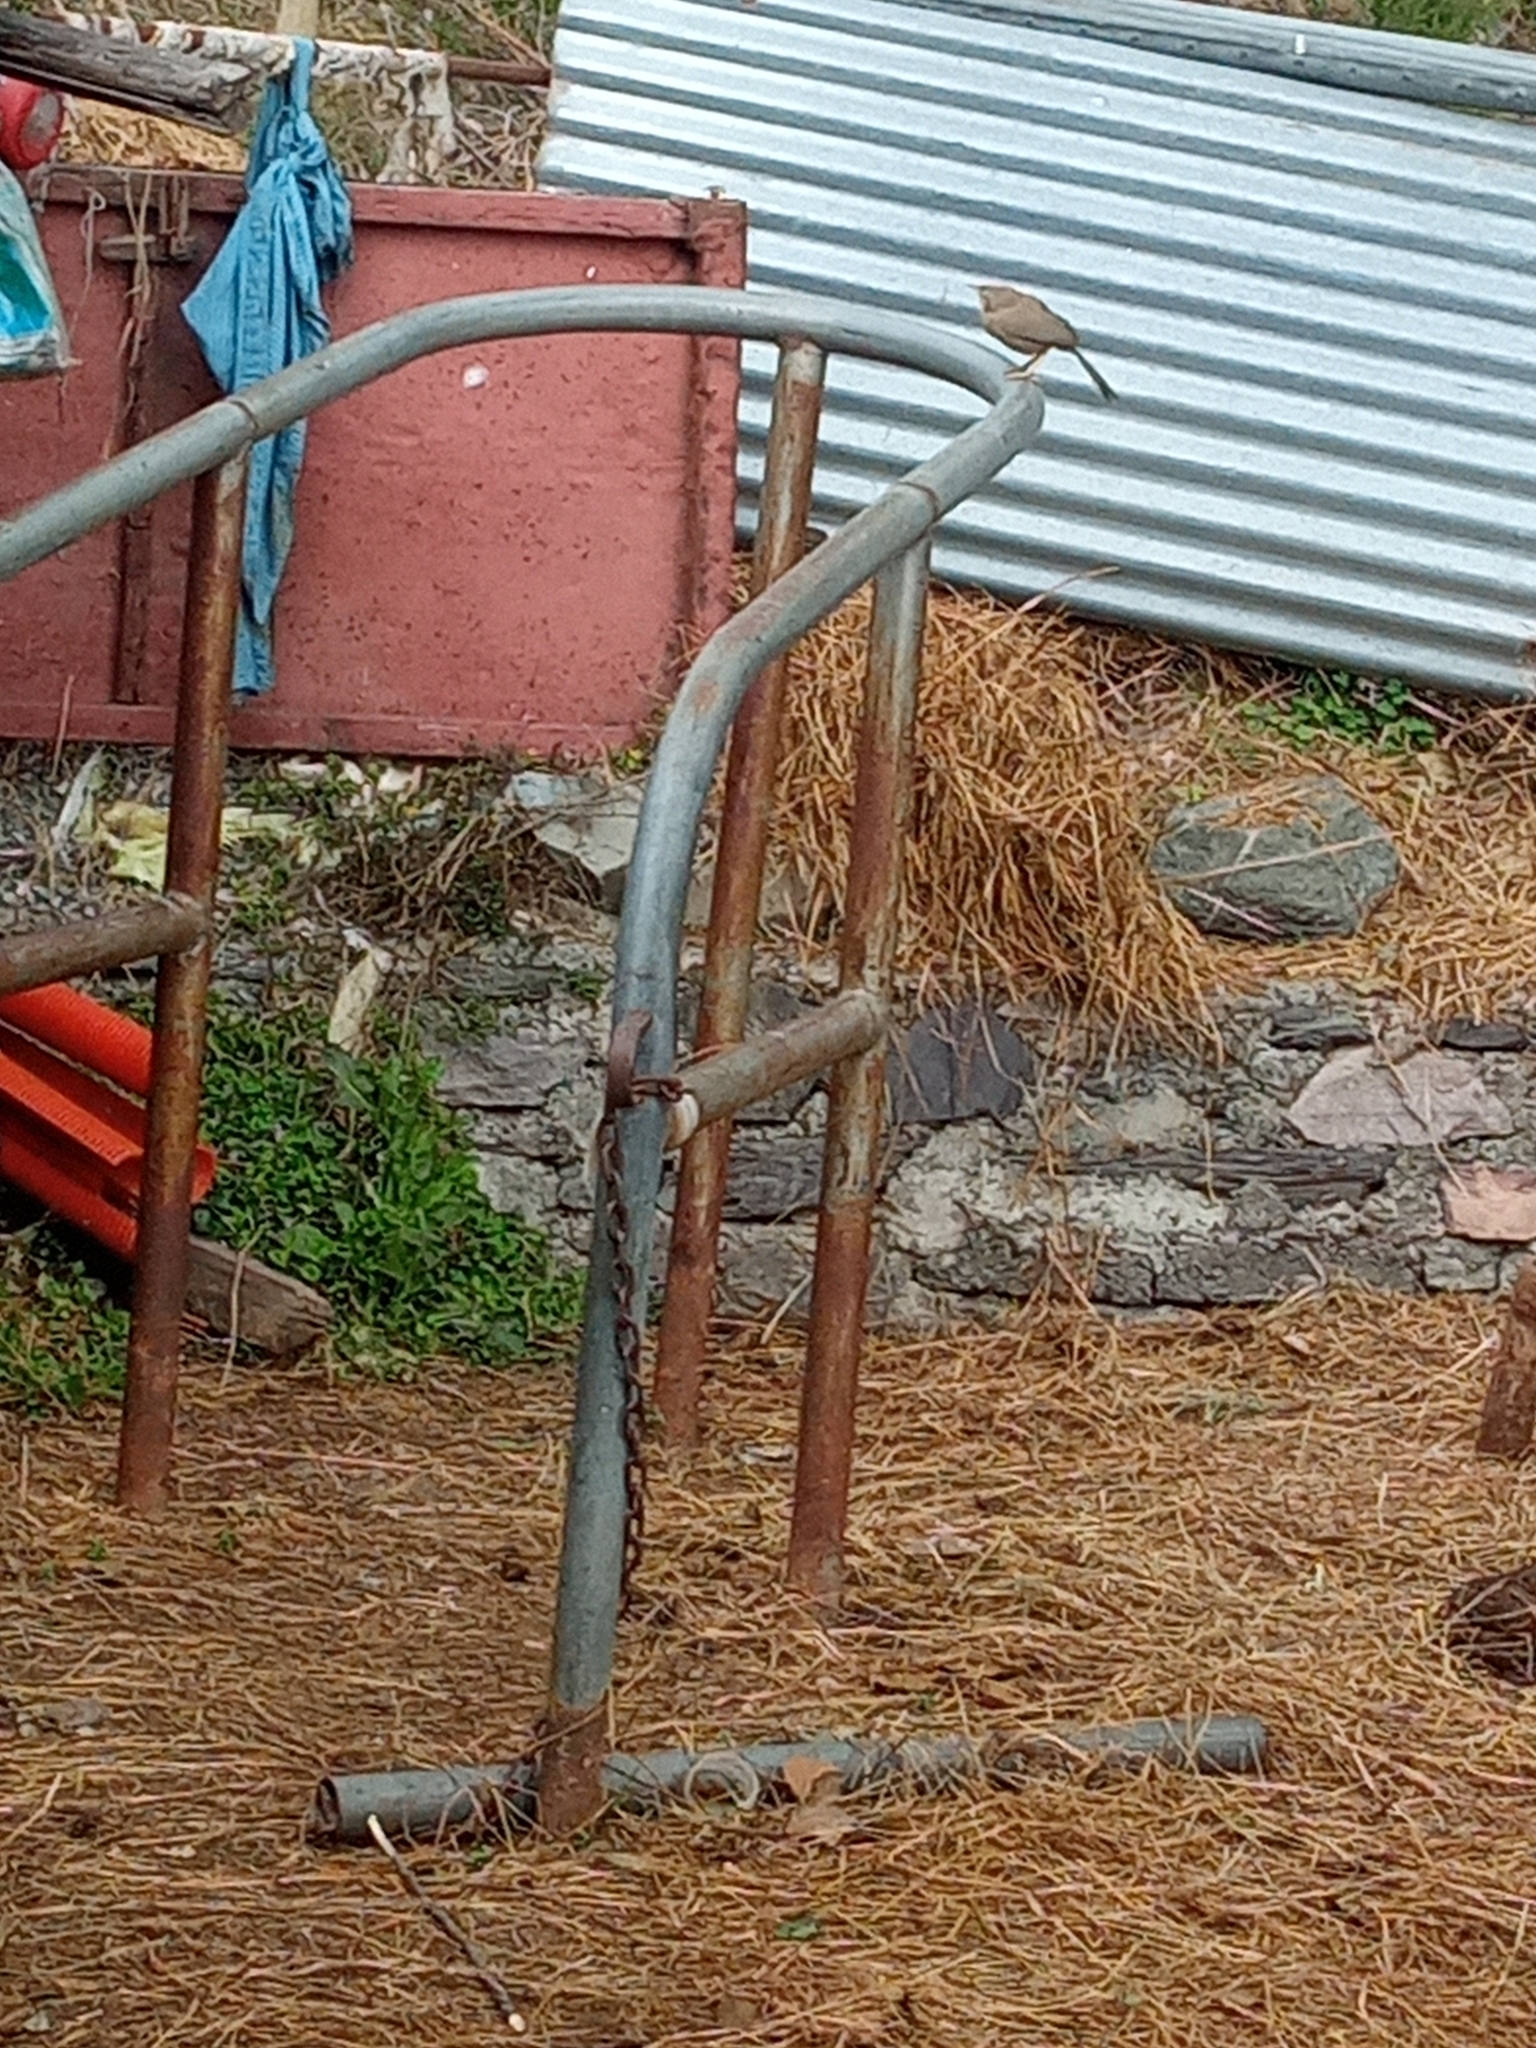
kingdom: Animalia
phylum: Chordata
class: Aves
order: Passeriformes
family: Leiothrichidae
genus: Turdoides
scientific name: Turdoides striata
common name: Jungle babbler
